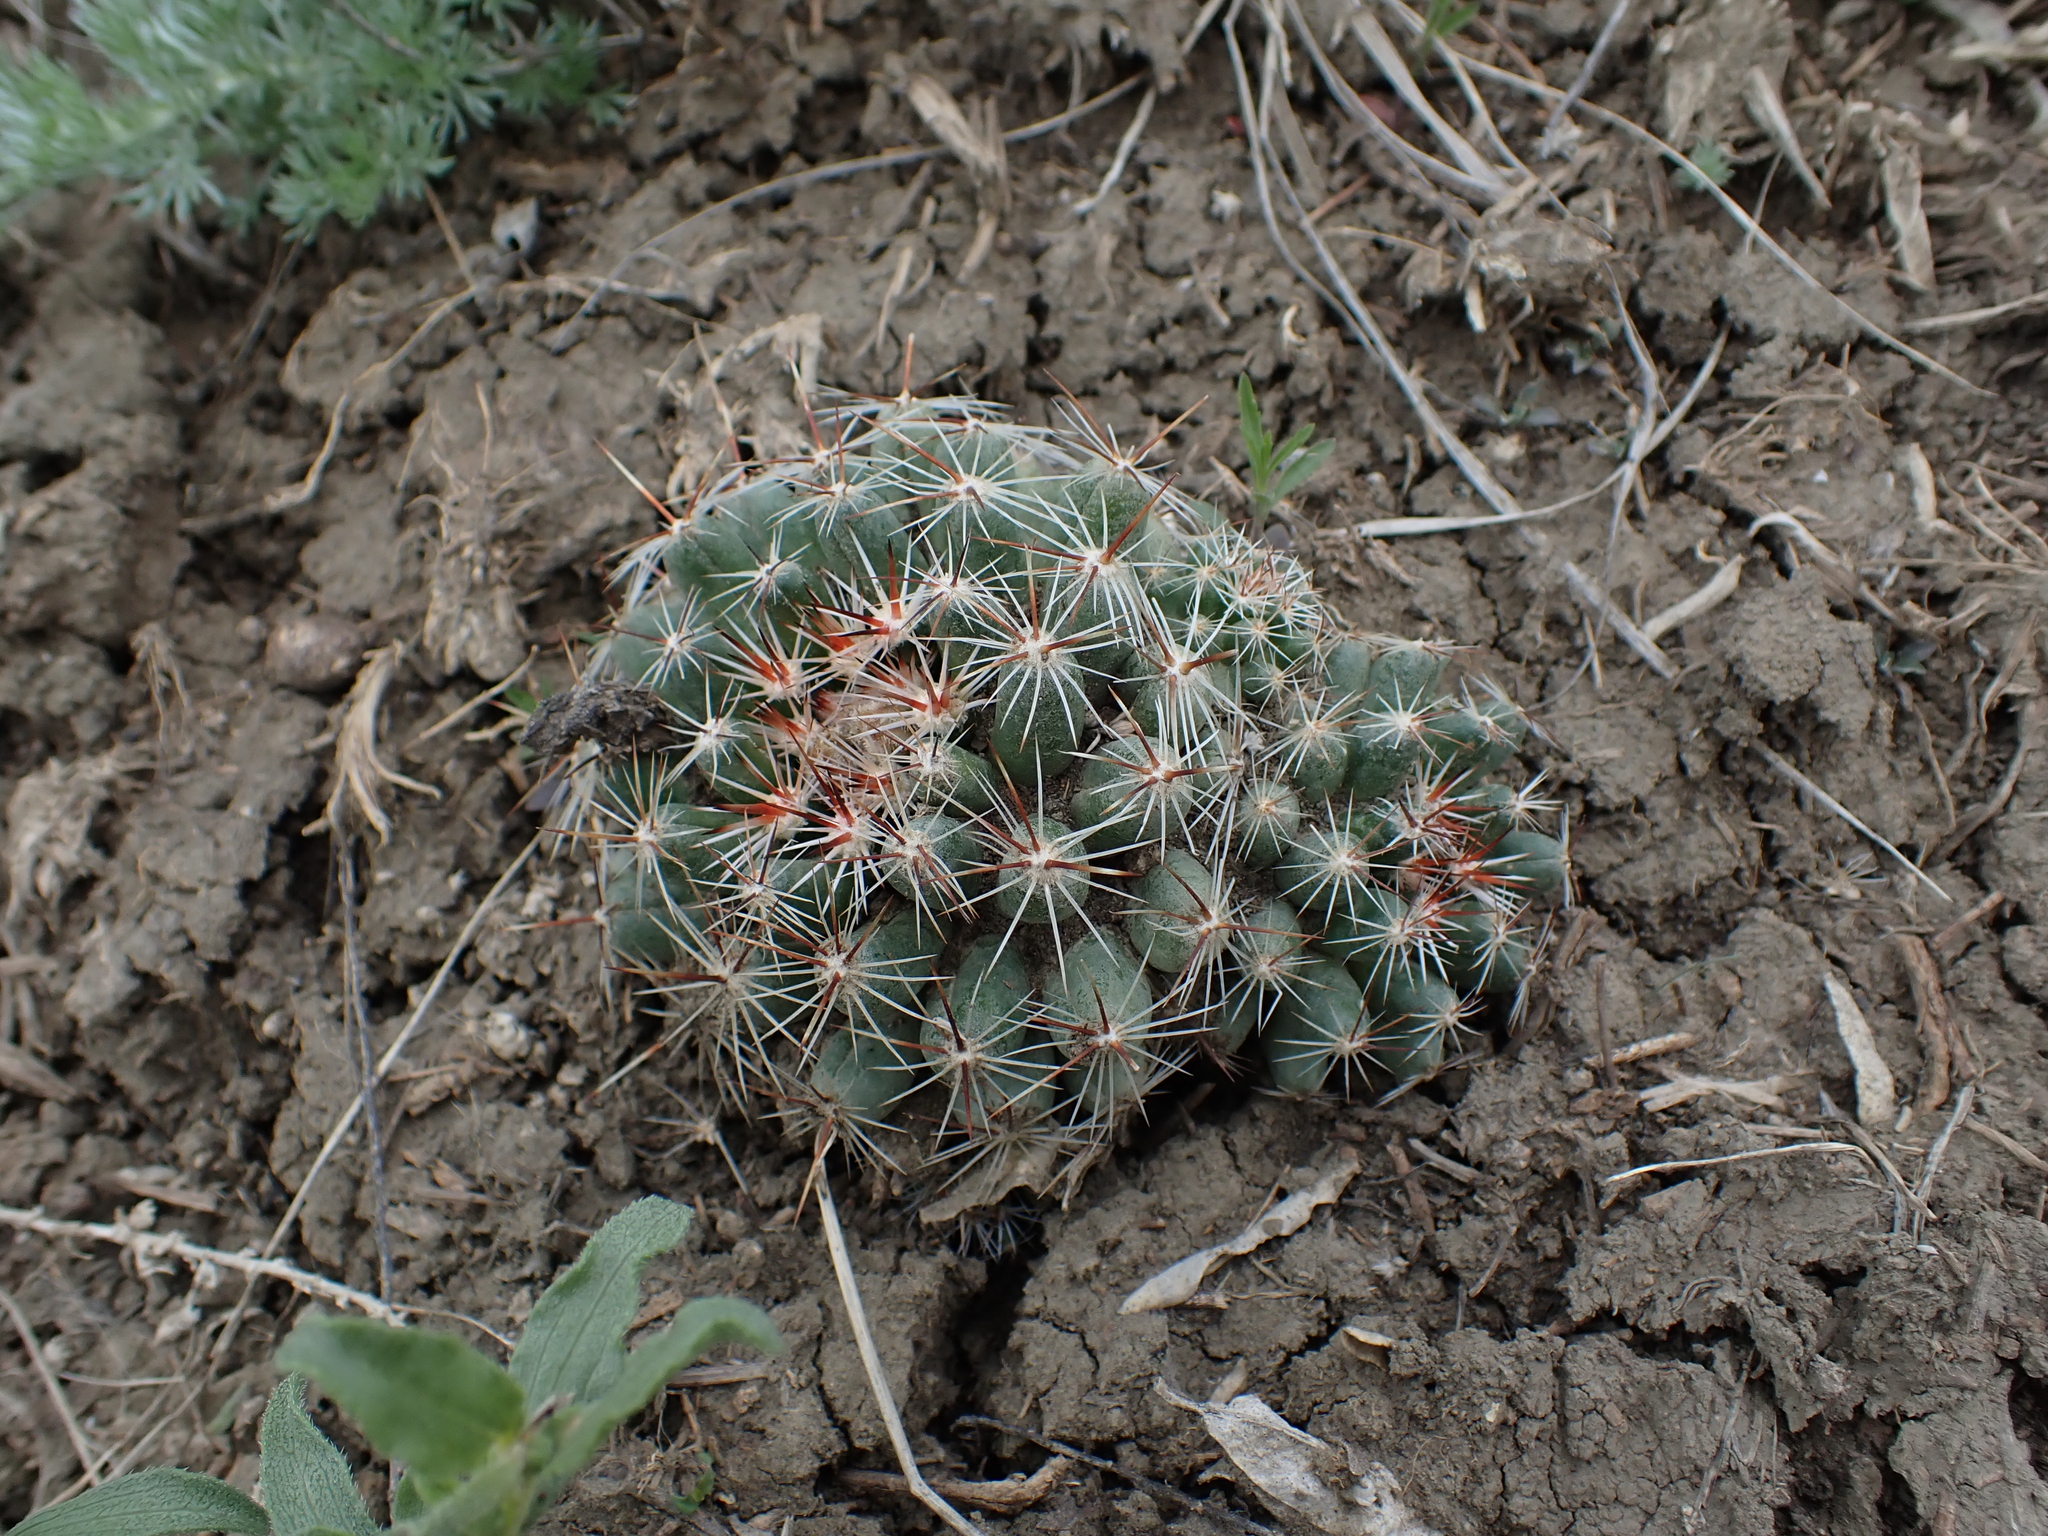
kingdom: Plantae
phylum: Tracheophyta
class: Magnoliopsida
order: Caryophyllales
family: Cactaceae
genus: Pelecyphora
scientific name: Pelecyphora vivipara
